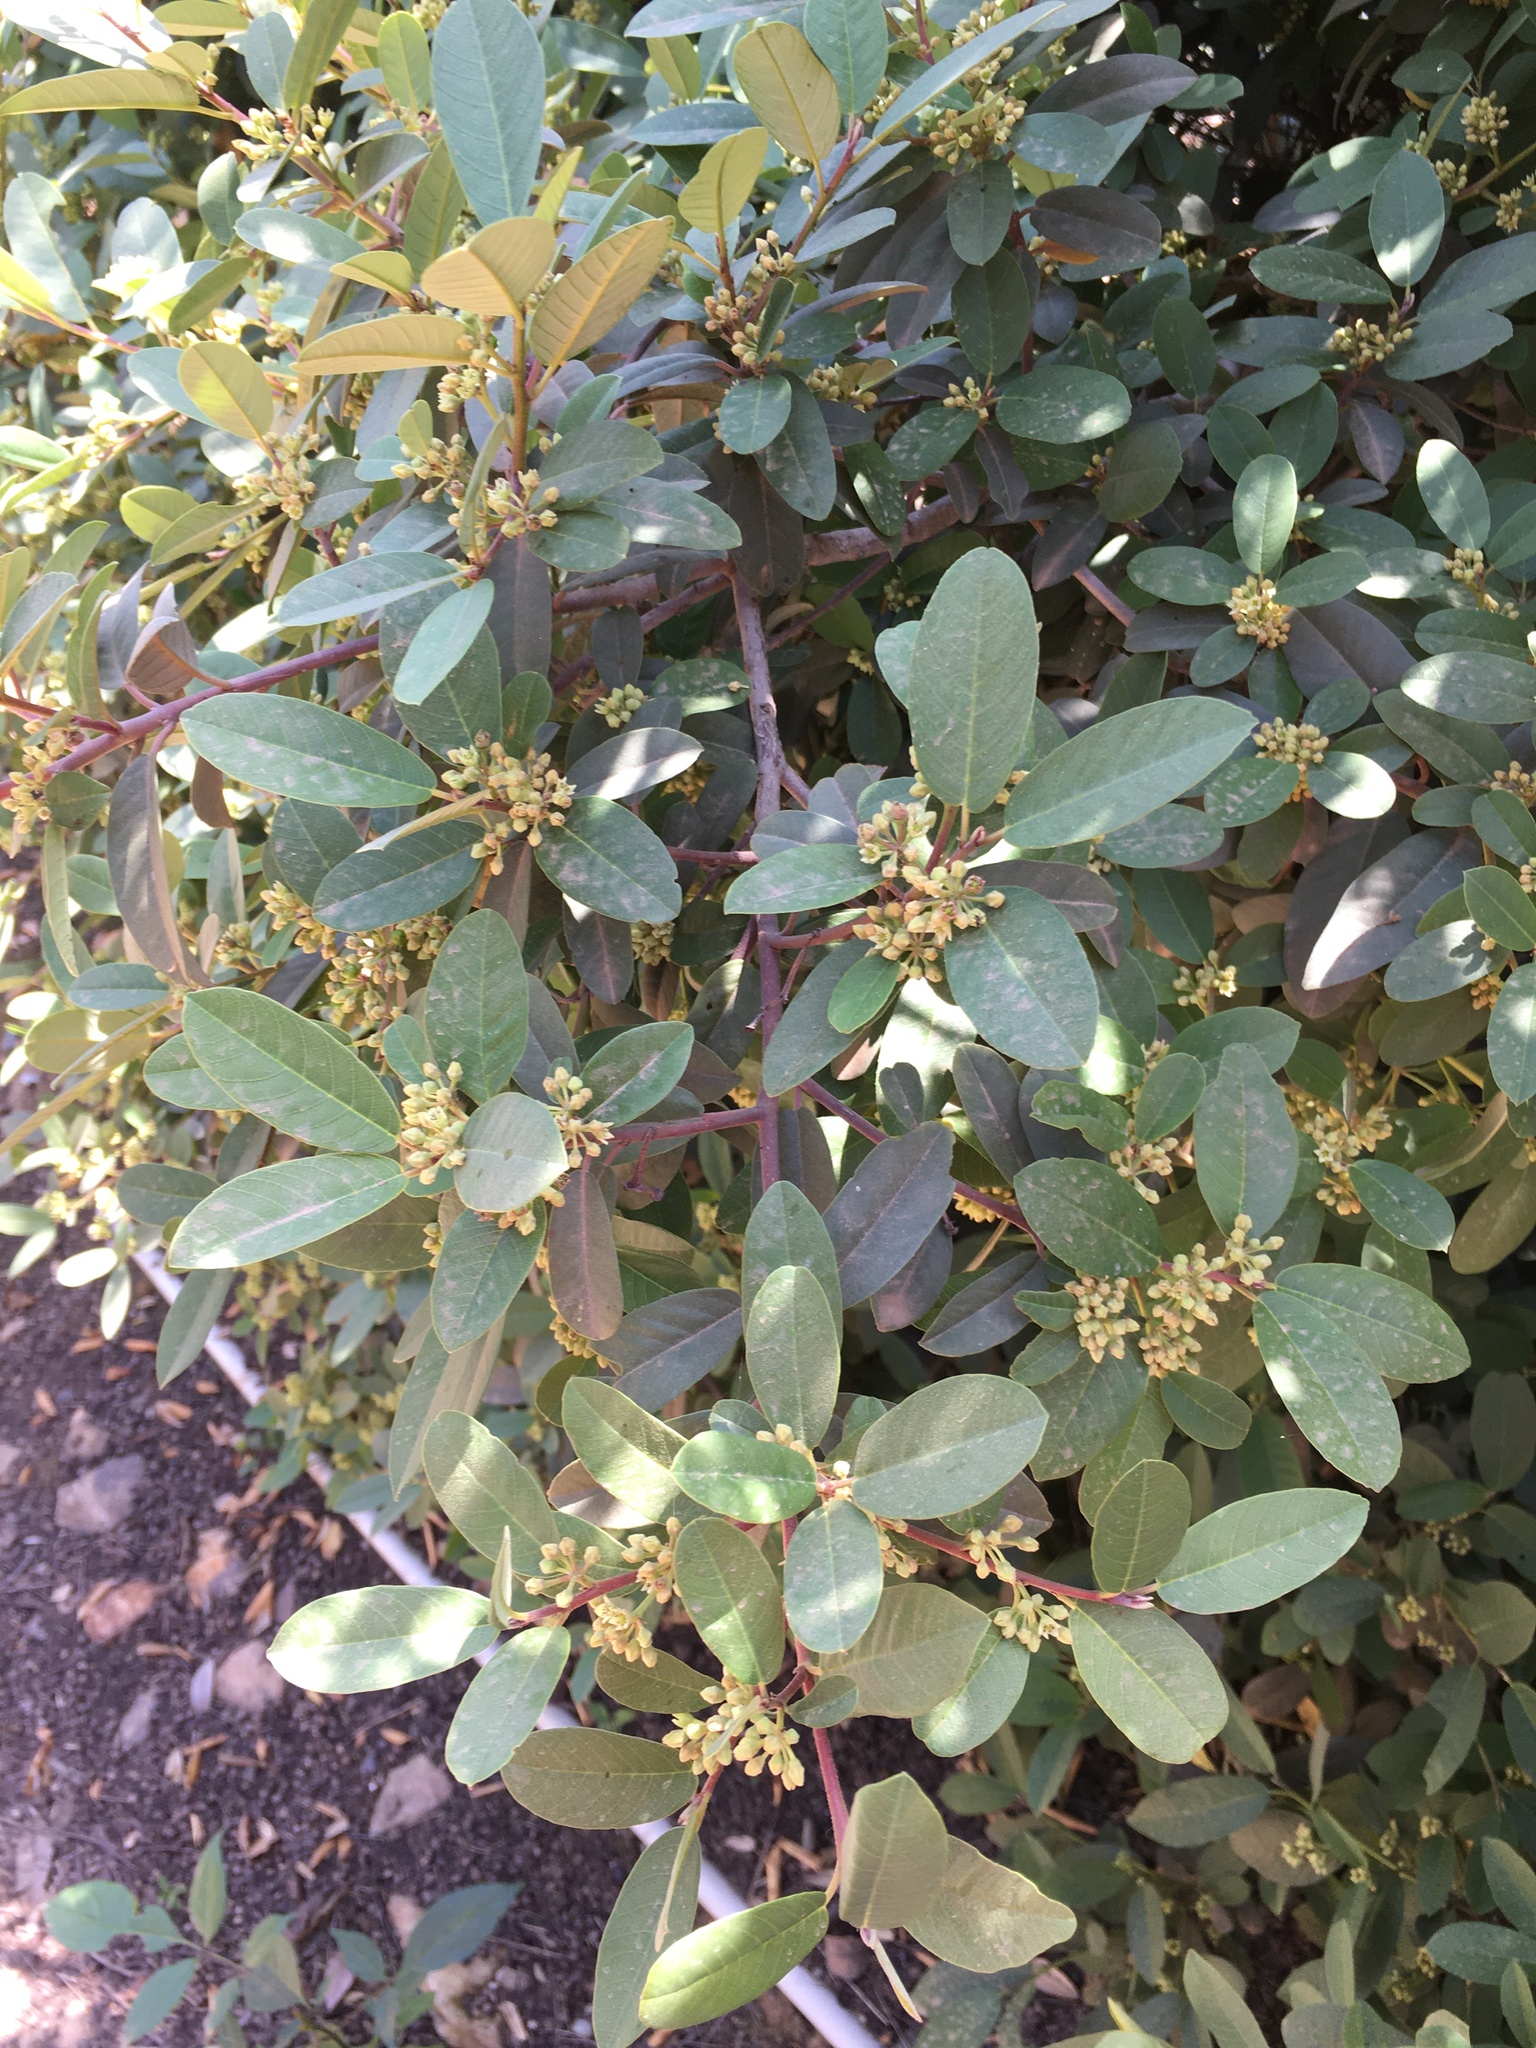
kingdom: Plantae
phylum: Tracheophyta
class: Magnoliopsida
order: Rosales
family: Rhamnaceae
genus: Frangula
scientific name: Frangula californica
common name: California buckthorn
